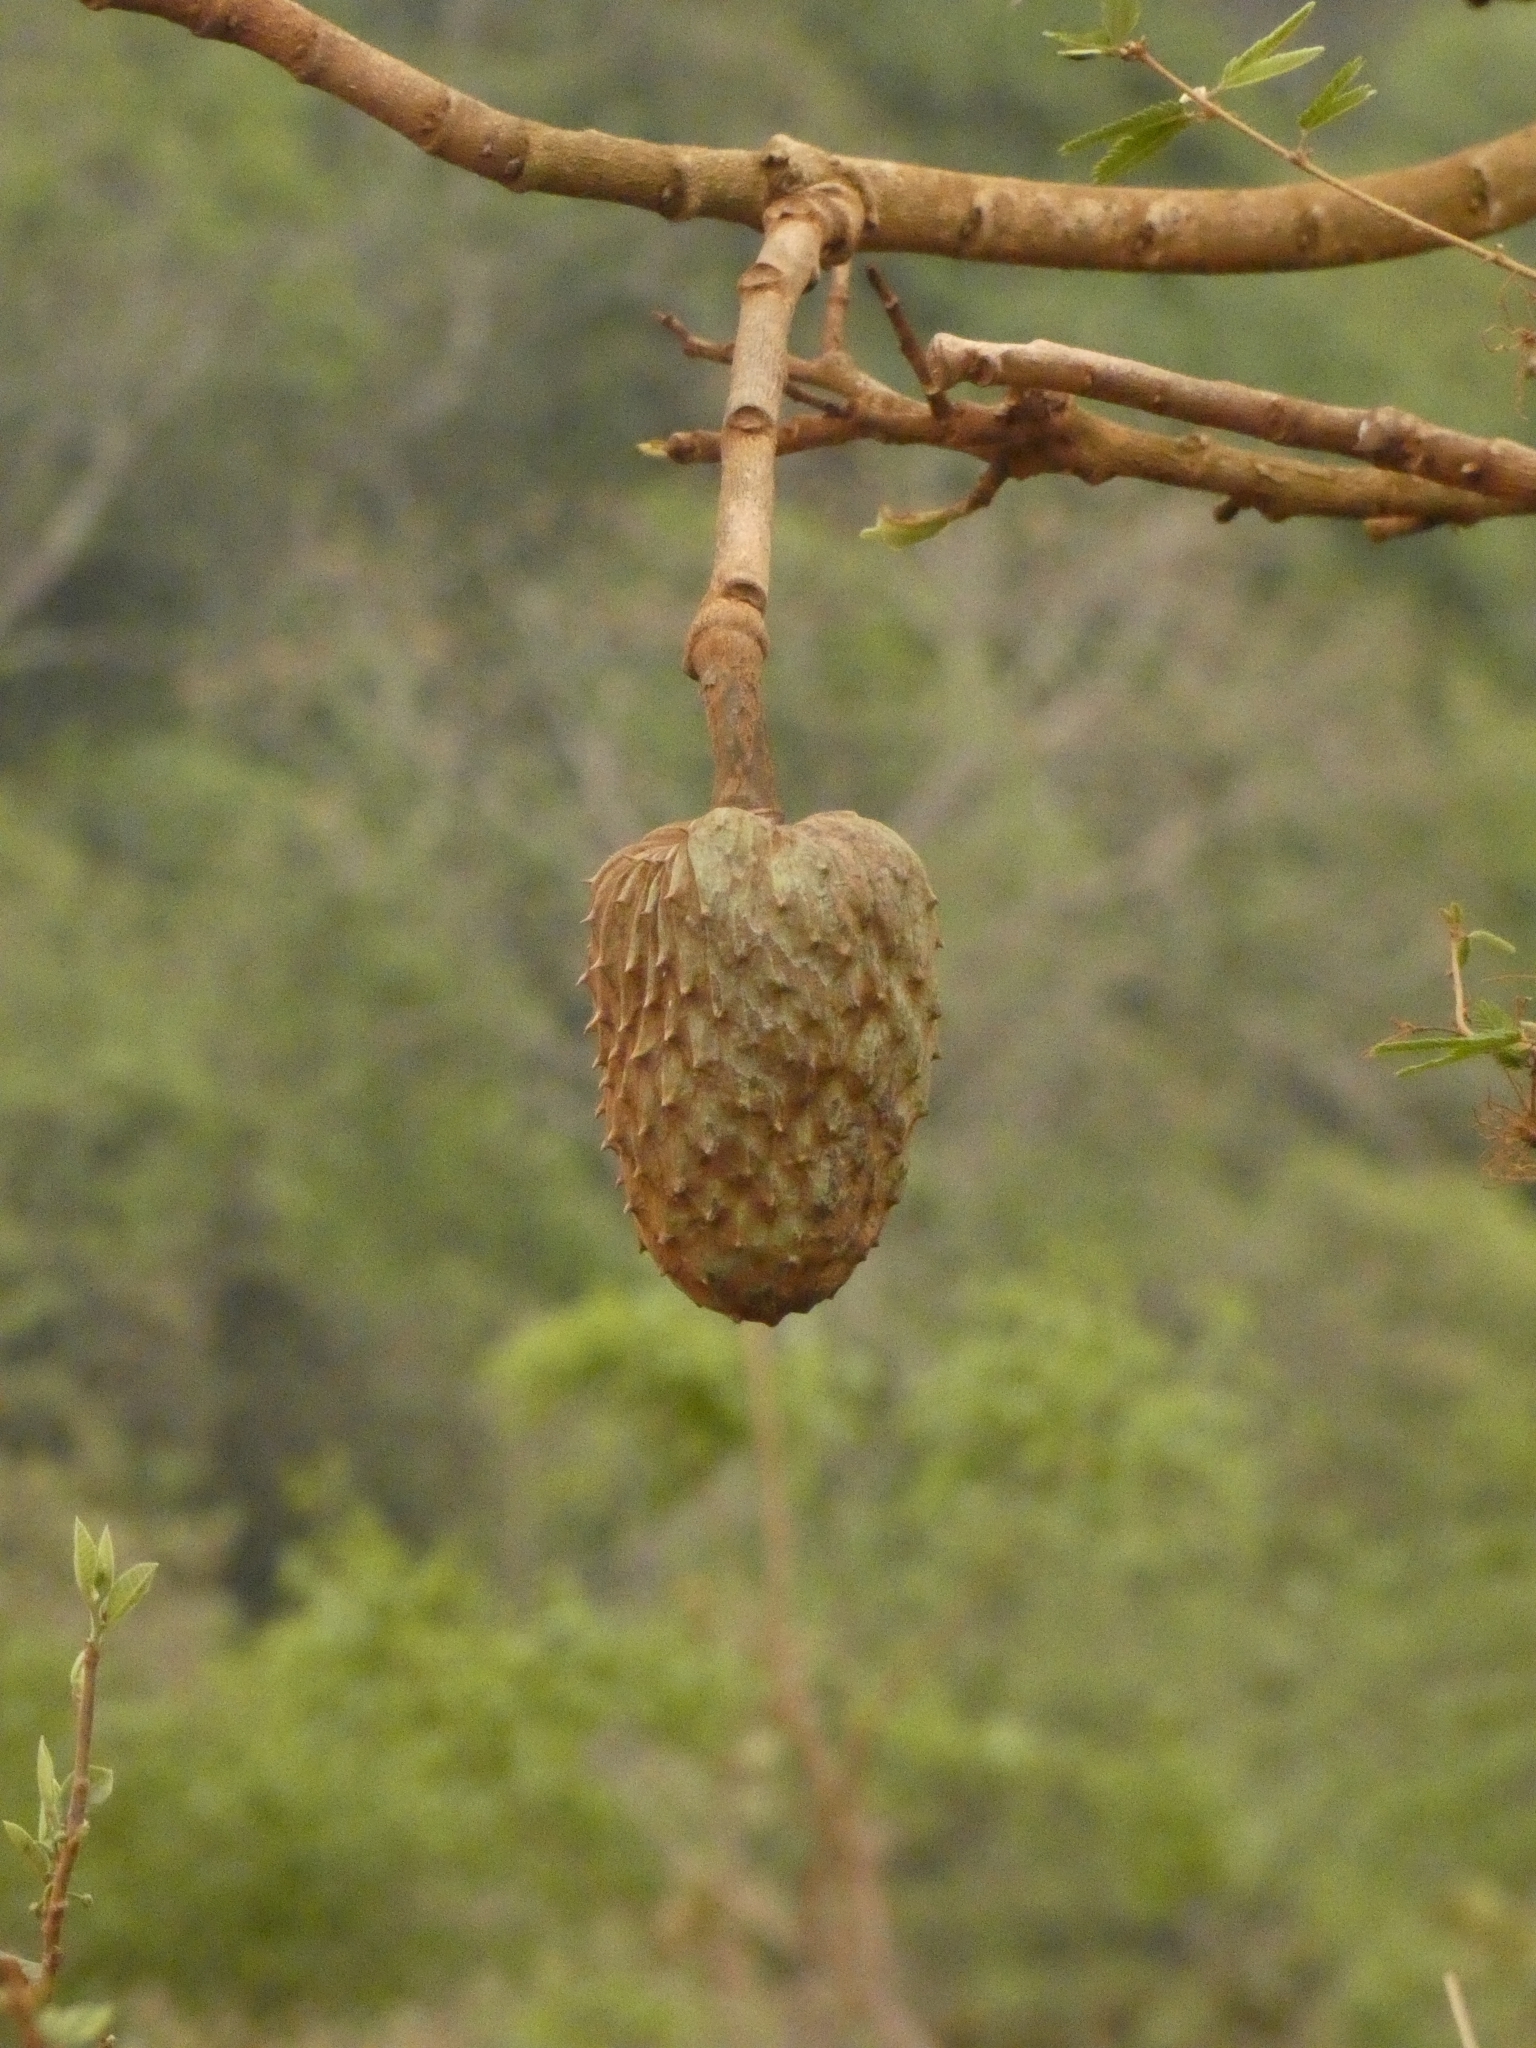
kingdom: Plantae
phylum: Tracheophyta
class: Magnoliopsida
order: Magnoliales
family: Annonaceae
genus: Annona
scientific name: Annona coriacea
